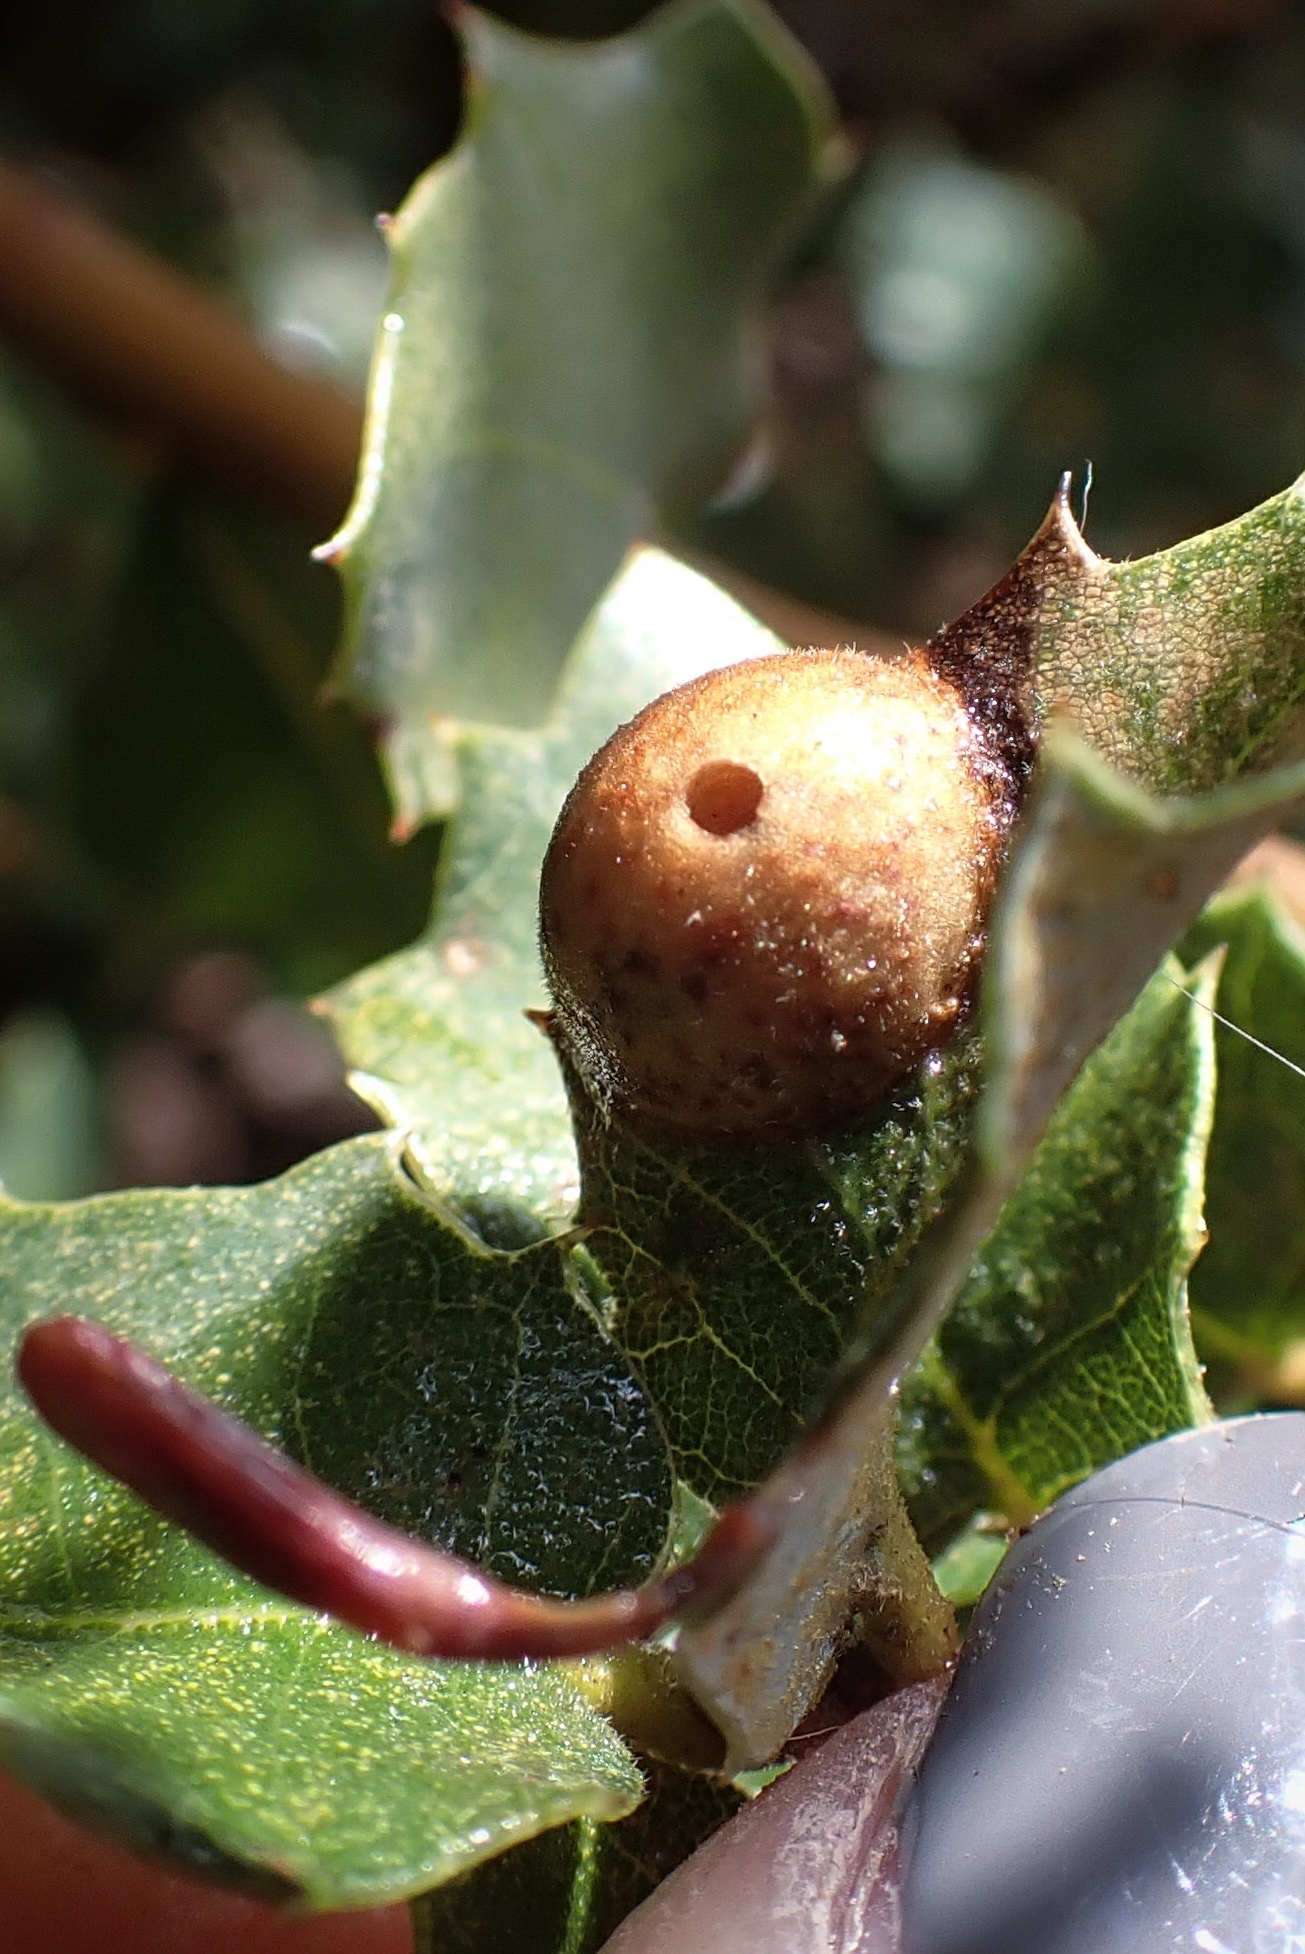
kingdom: Animalia
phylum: Arthropoda
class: Insecta
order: Hymenoptera
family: Cynipidae
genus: Heteroecus
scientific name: Heteroecus
